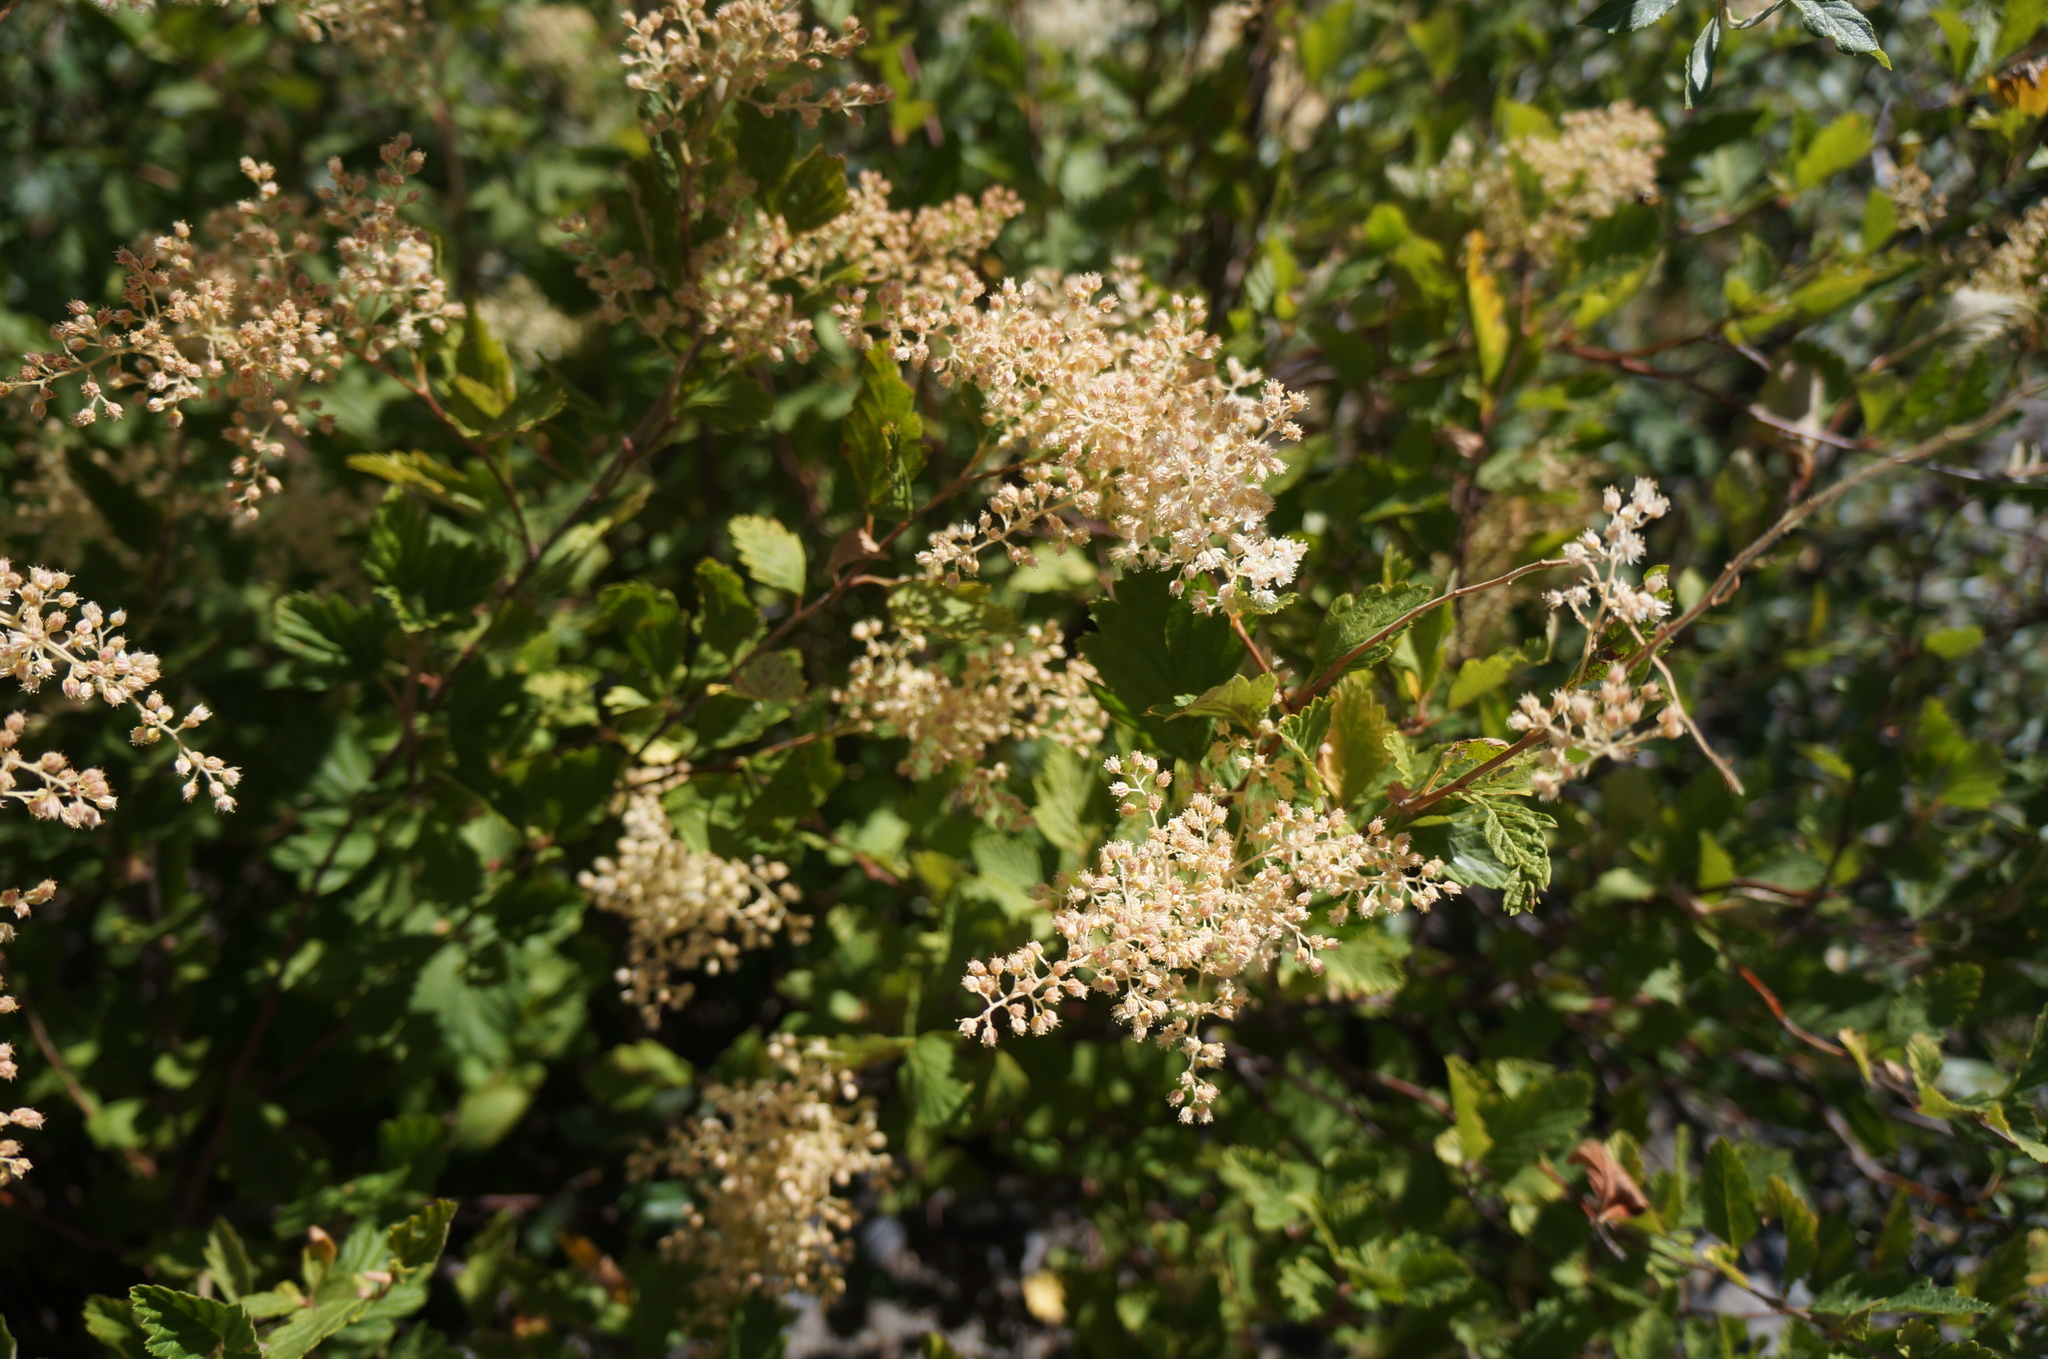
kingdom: Plantae
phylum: Tracheophyta
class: Magnoliopsida
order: Rosales
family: Rosaceae
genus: Holodiscus
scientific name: Holodiscus discolor
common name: Oceanspray
